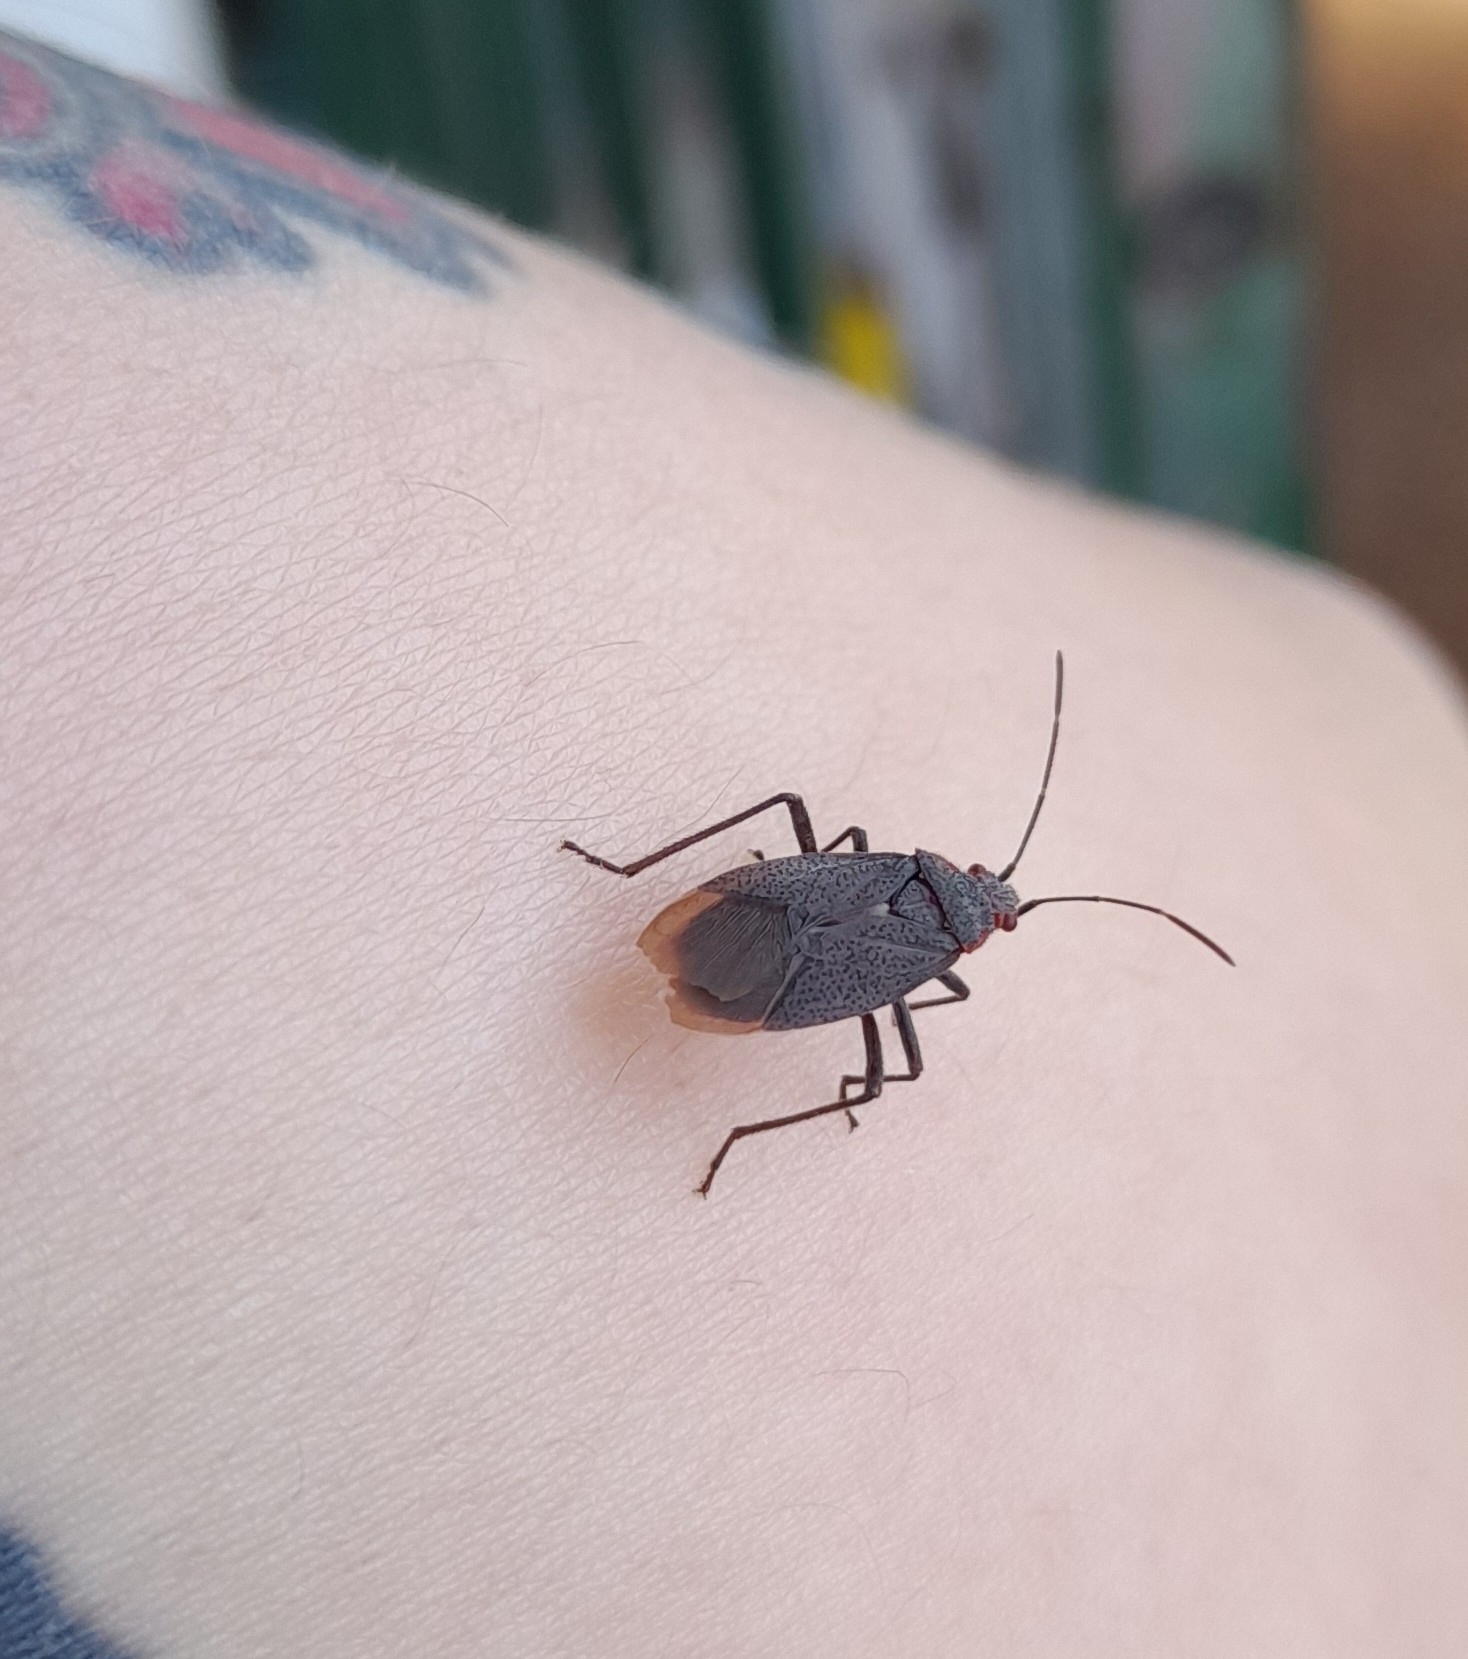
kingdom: Animalia
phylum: Arthropoda
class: Insecta
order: Hemiptera
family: Rhopalidae
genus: Jadera
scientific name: Jadera parapectoralis
